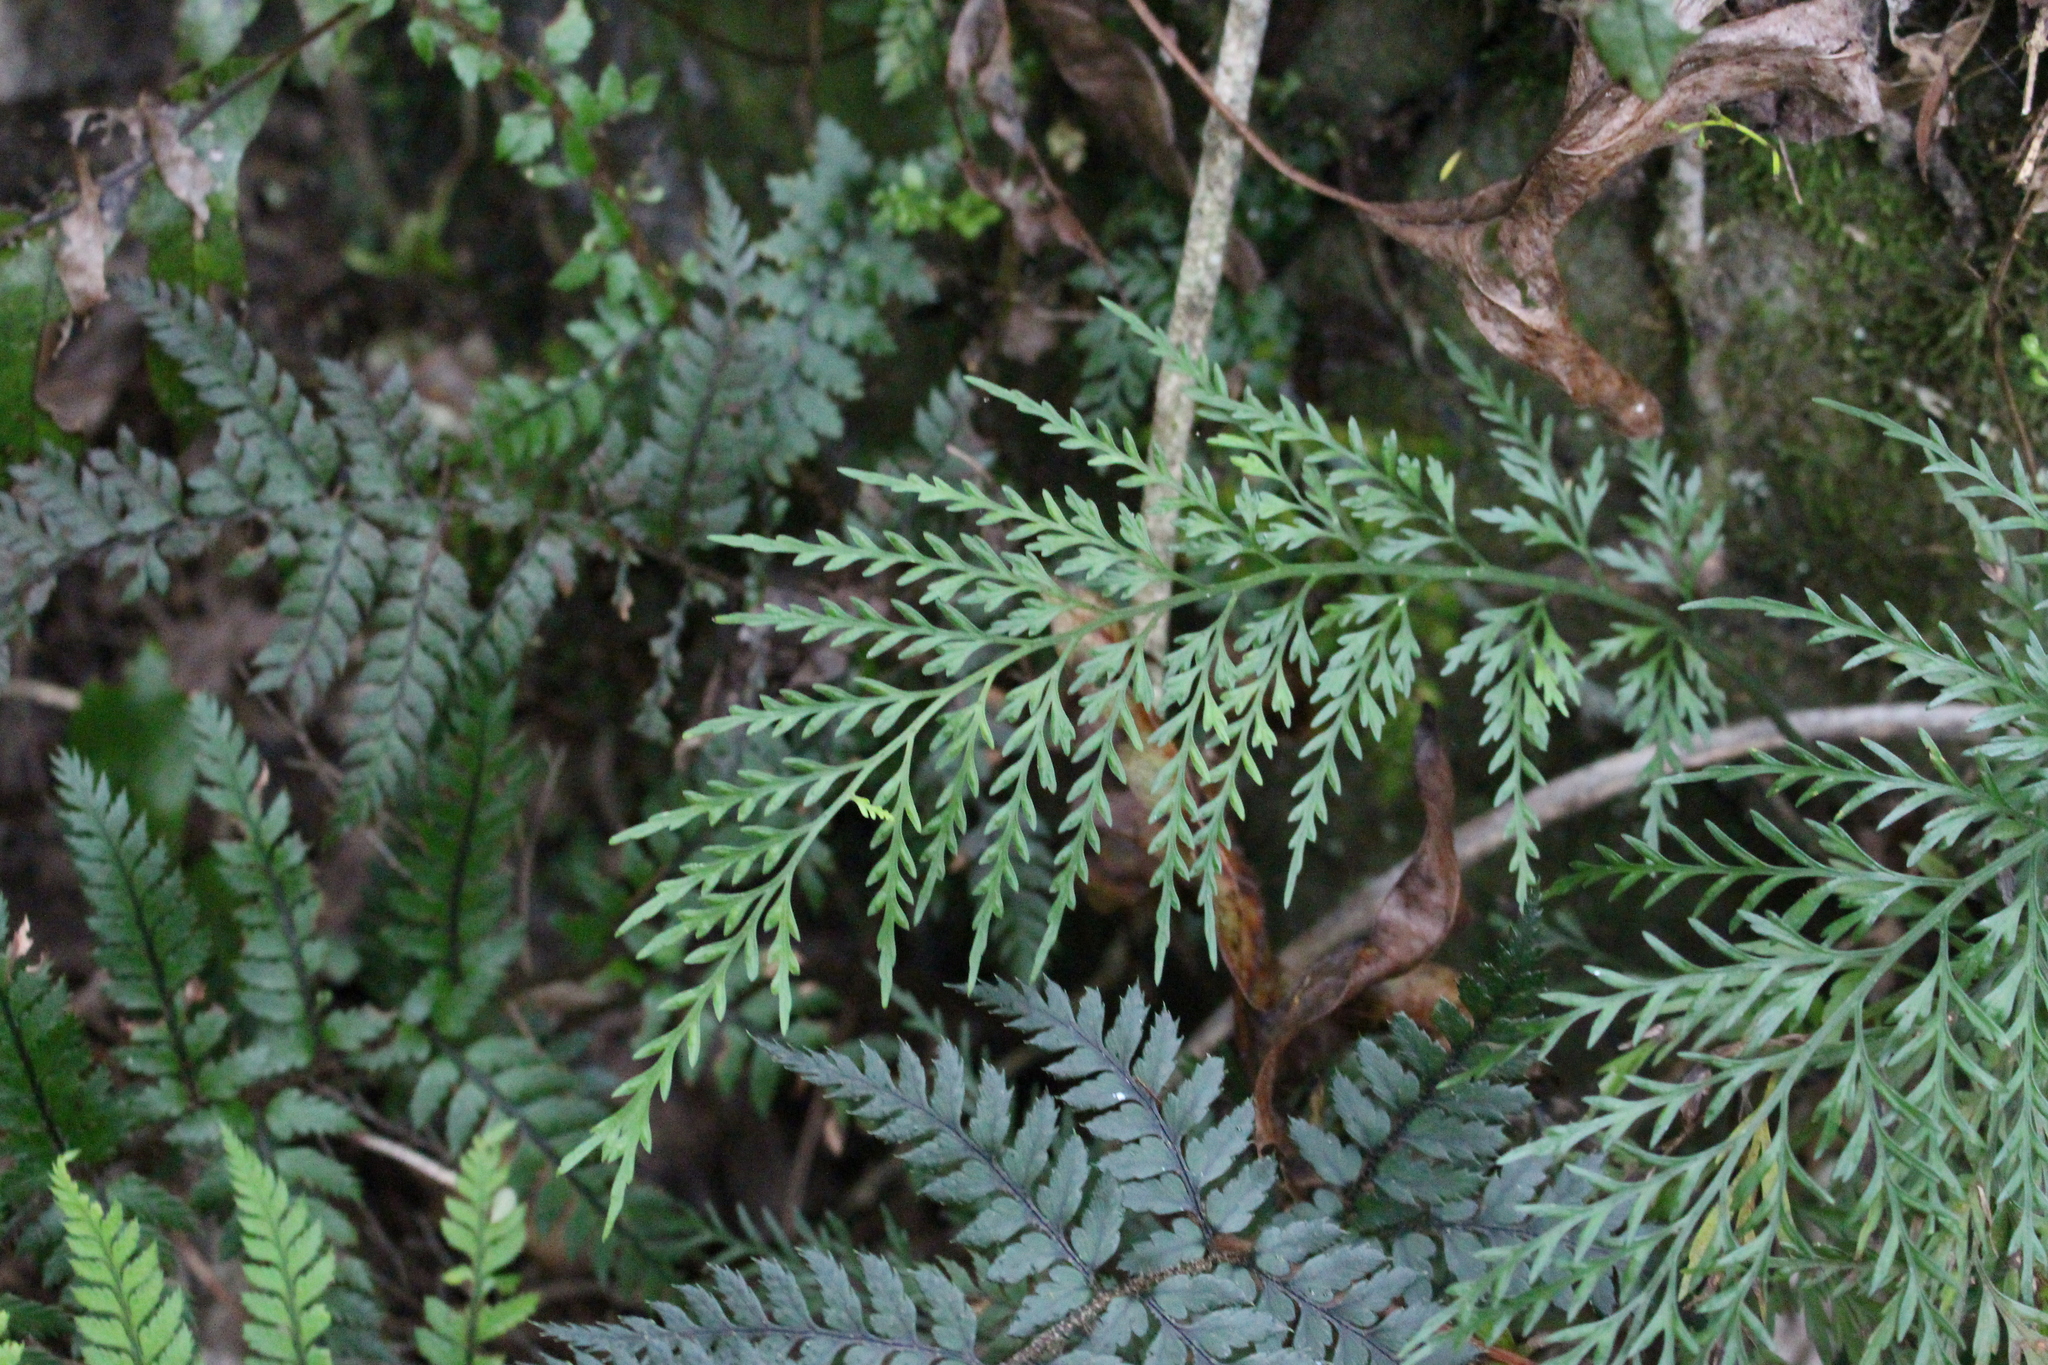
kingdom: Plantae
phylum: Tracheophyta
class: Polypodiopsida
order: Polypodiales
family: Aspleniaceae
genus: Asplenium
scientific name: Asplenium appendiculatum
